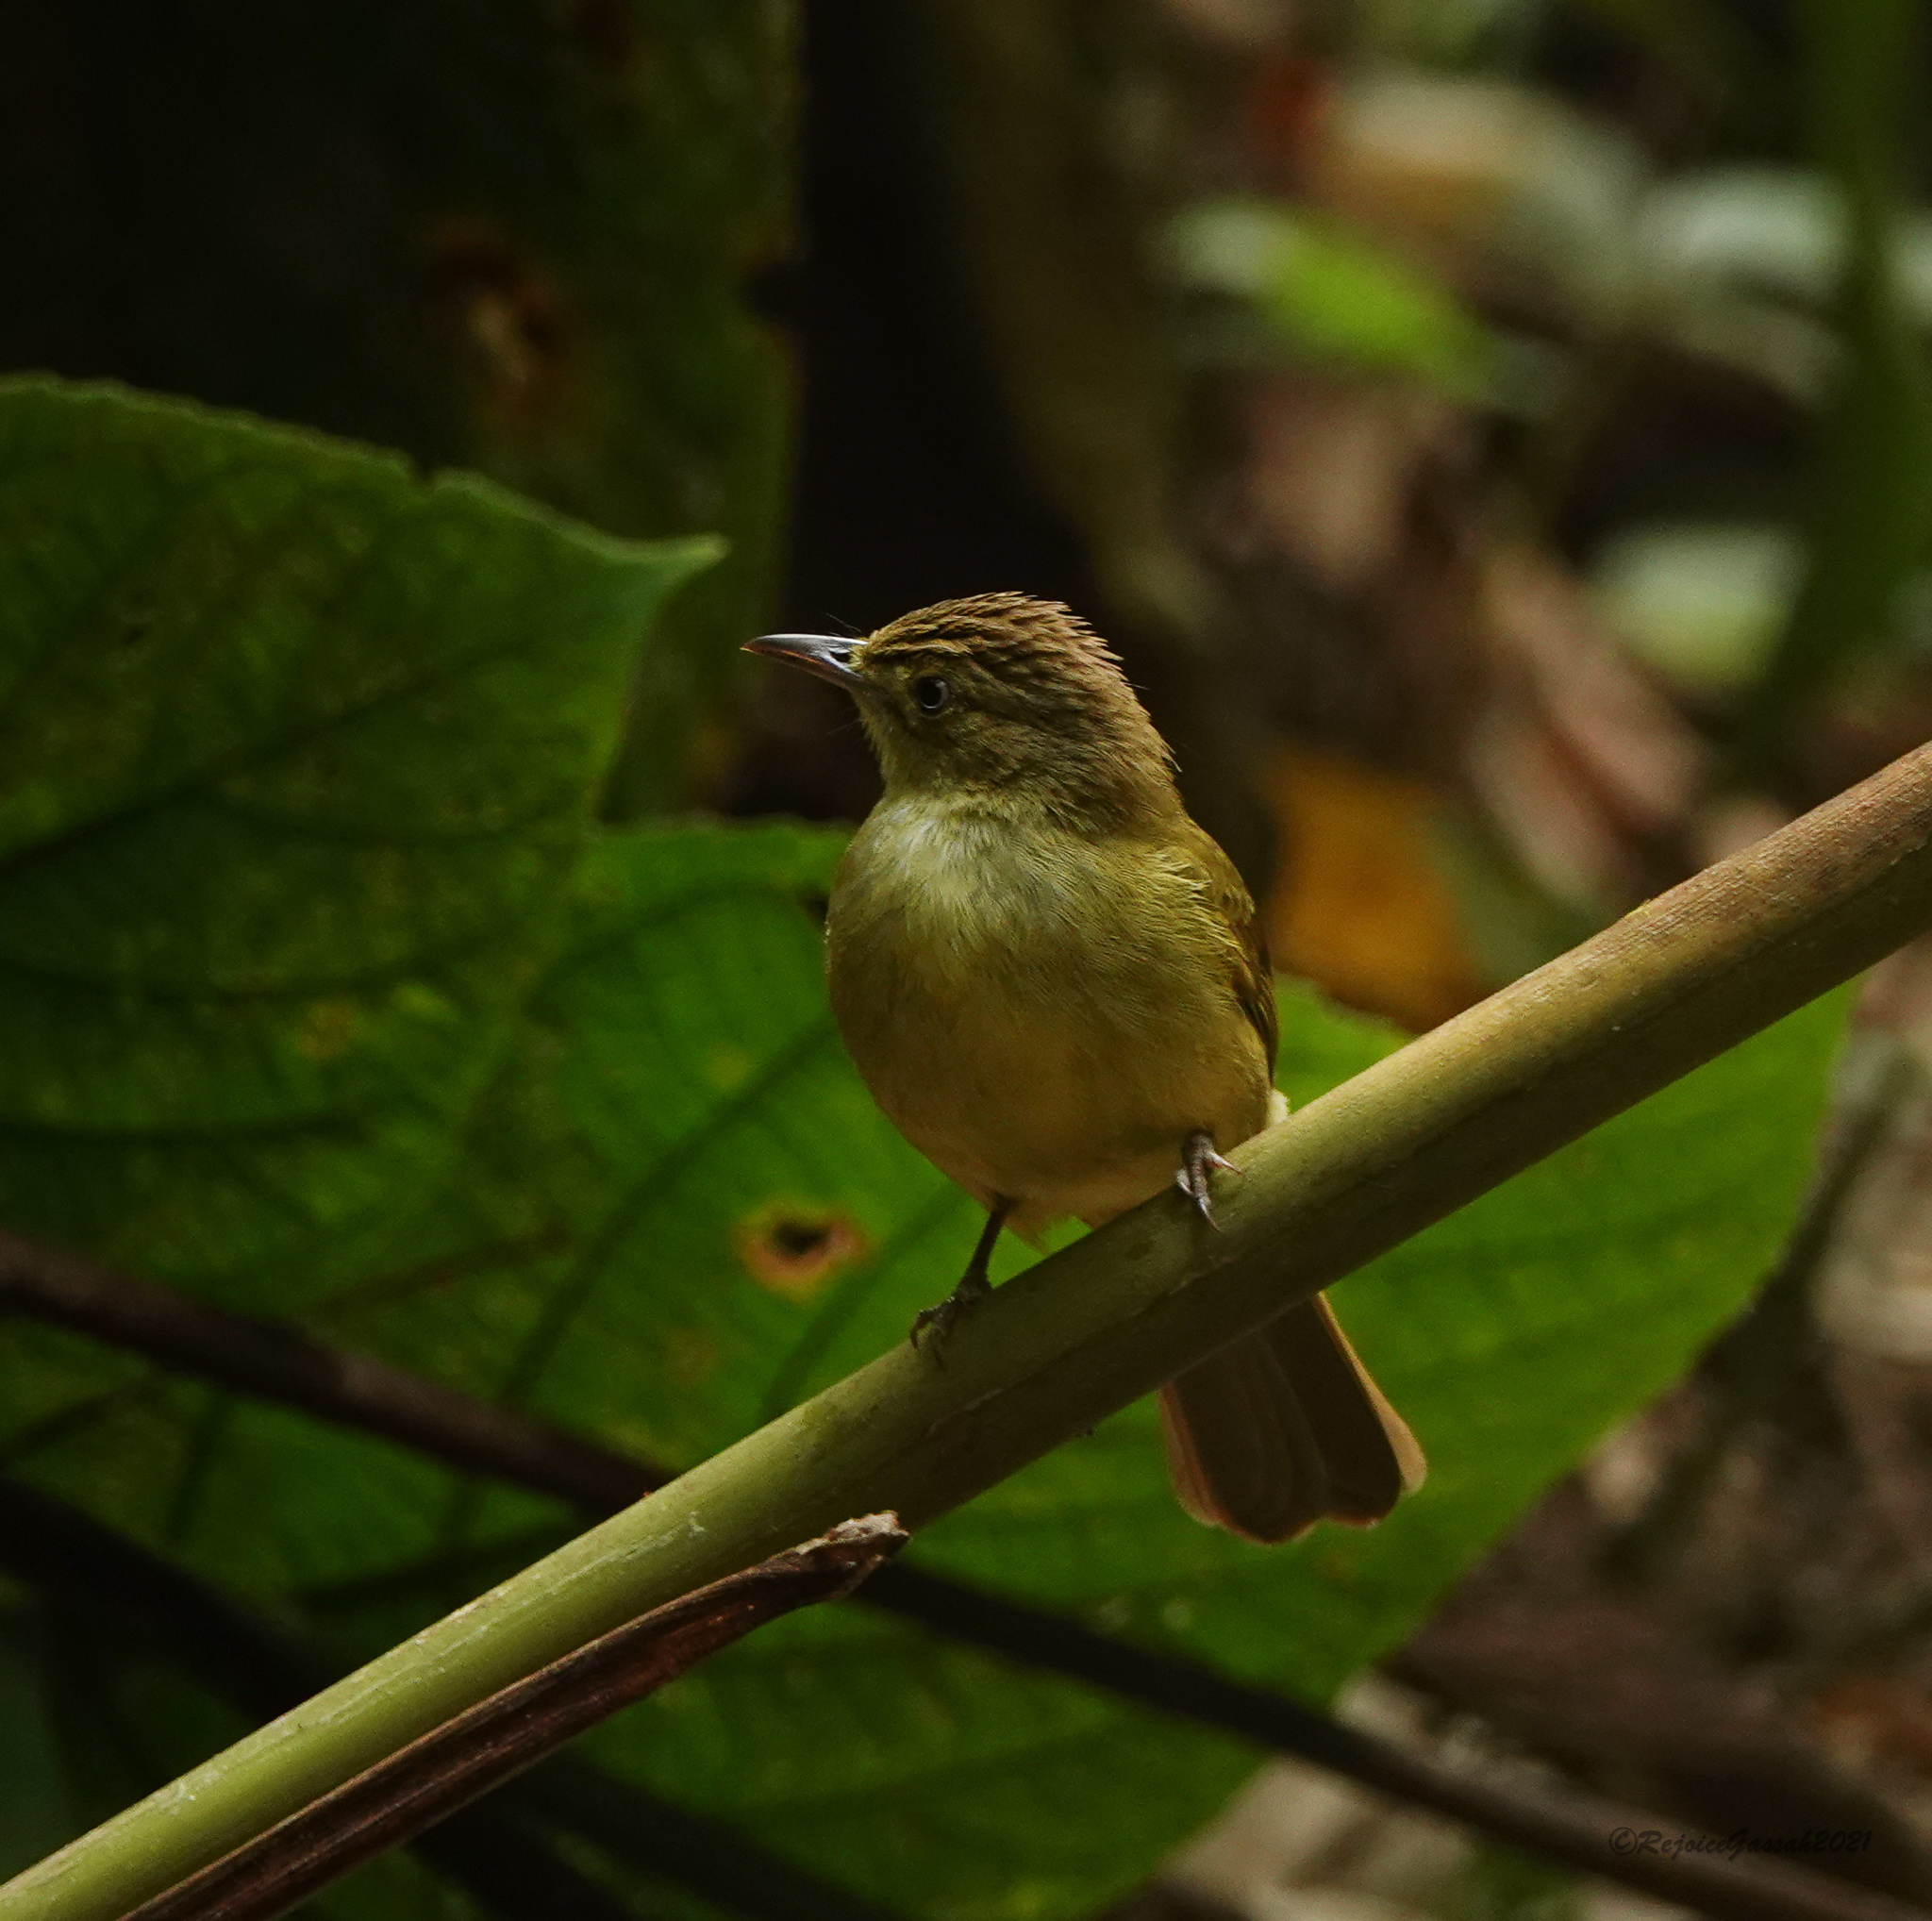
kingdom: Animalia
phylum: Chordata
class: Aves
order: Passeriformes
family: Pycnonotidae
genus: Iole
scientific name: Iole virescens
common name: Olive bulbul
